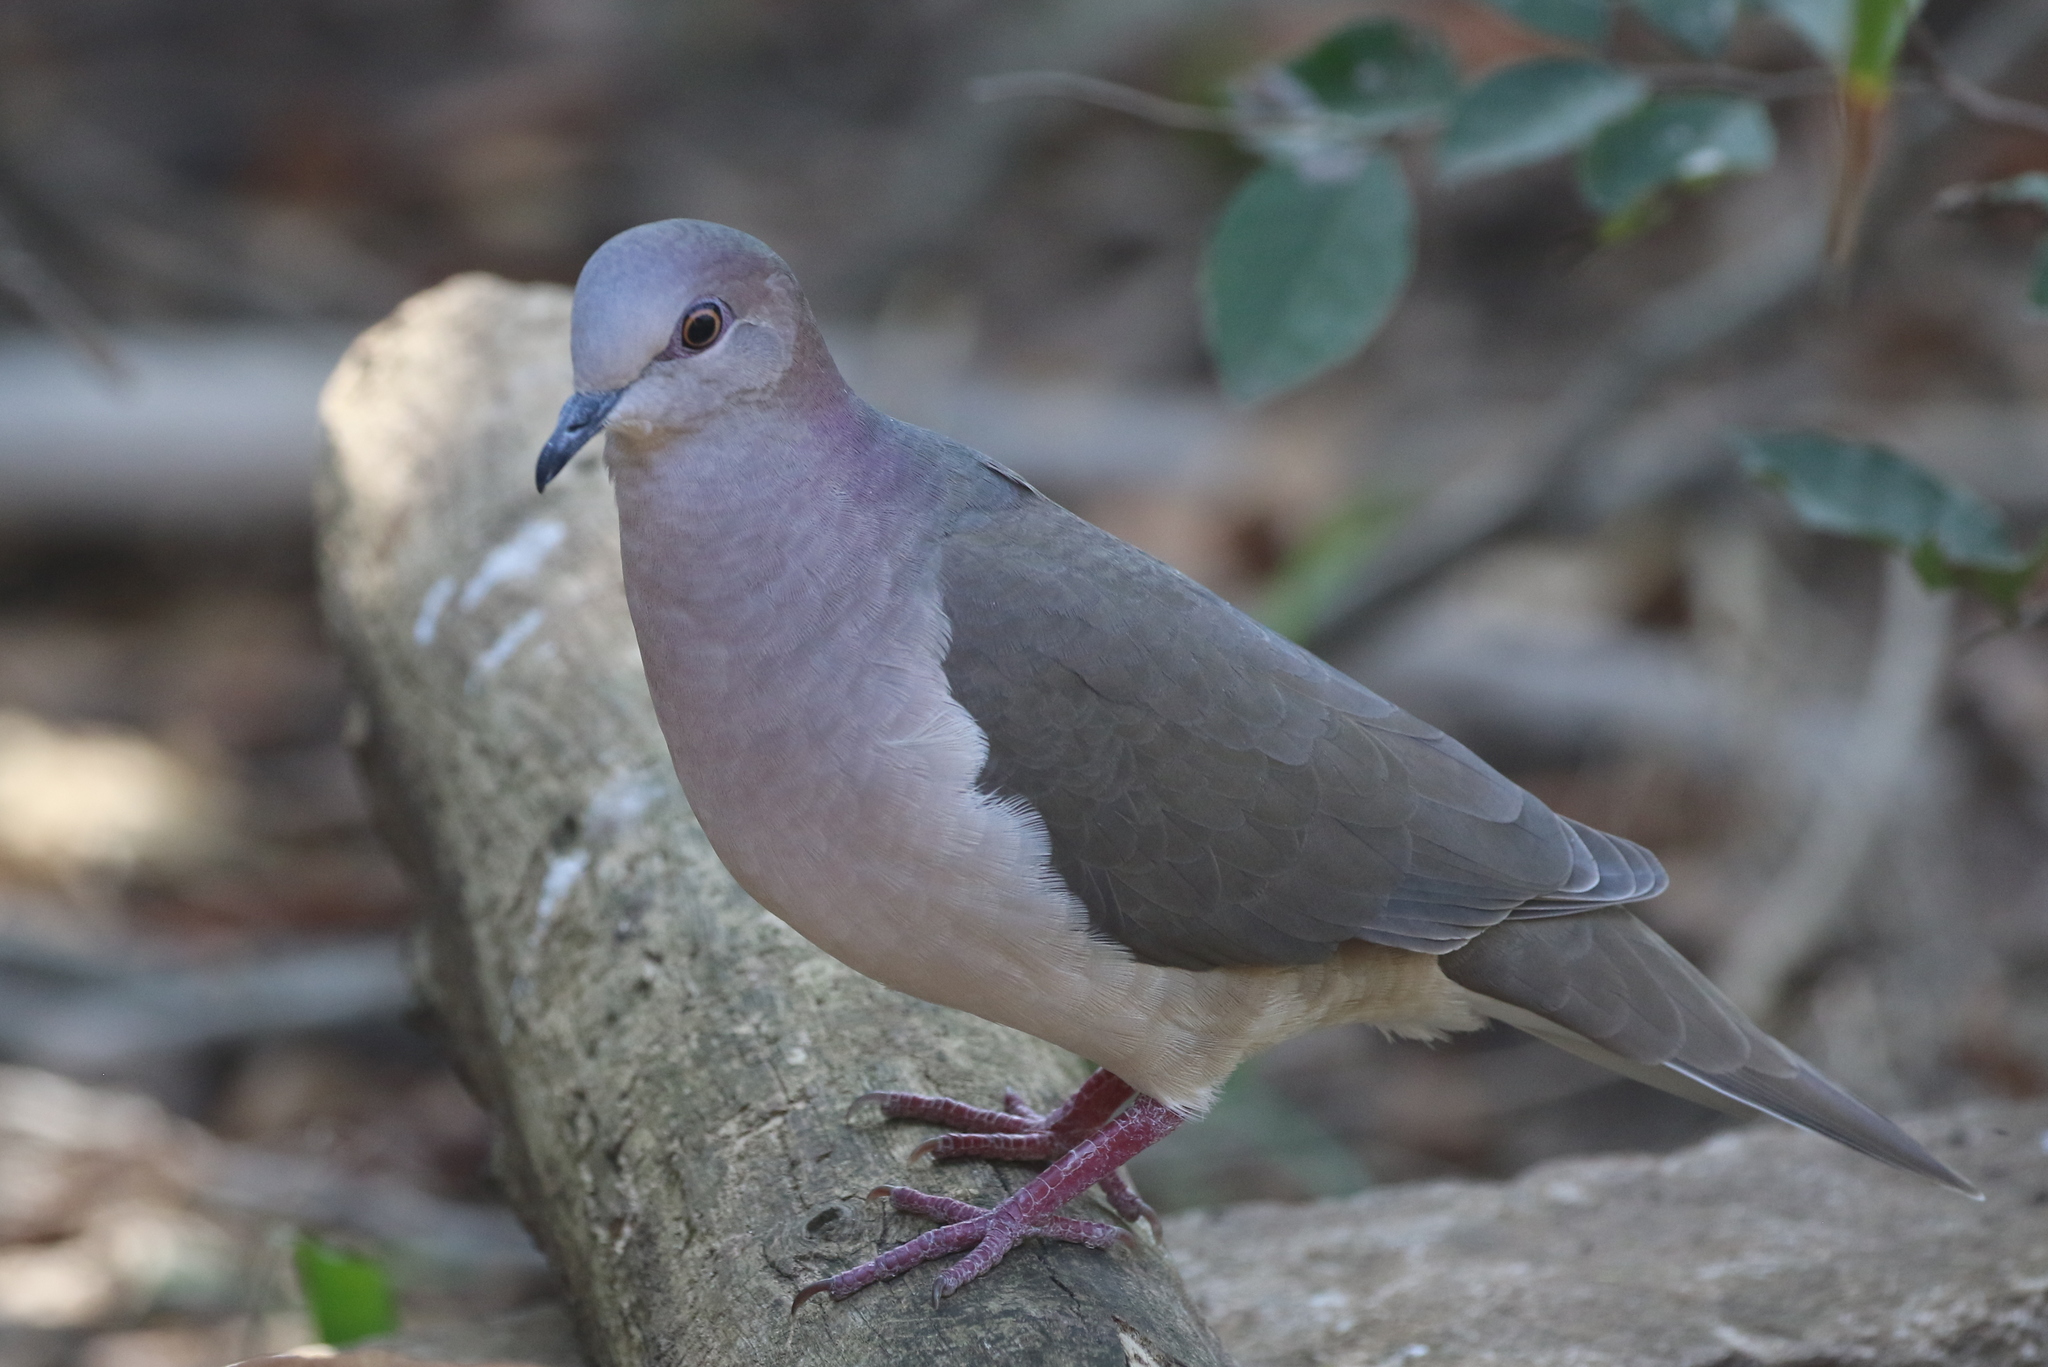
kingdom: Animalia
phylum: Chordata
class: Aves
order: Columbiformes
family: Columbidae
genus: Leptotila
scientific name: Leptotila verreauxi
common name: White-tipped dove
